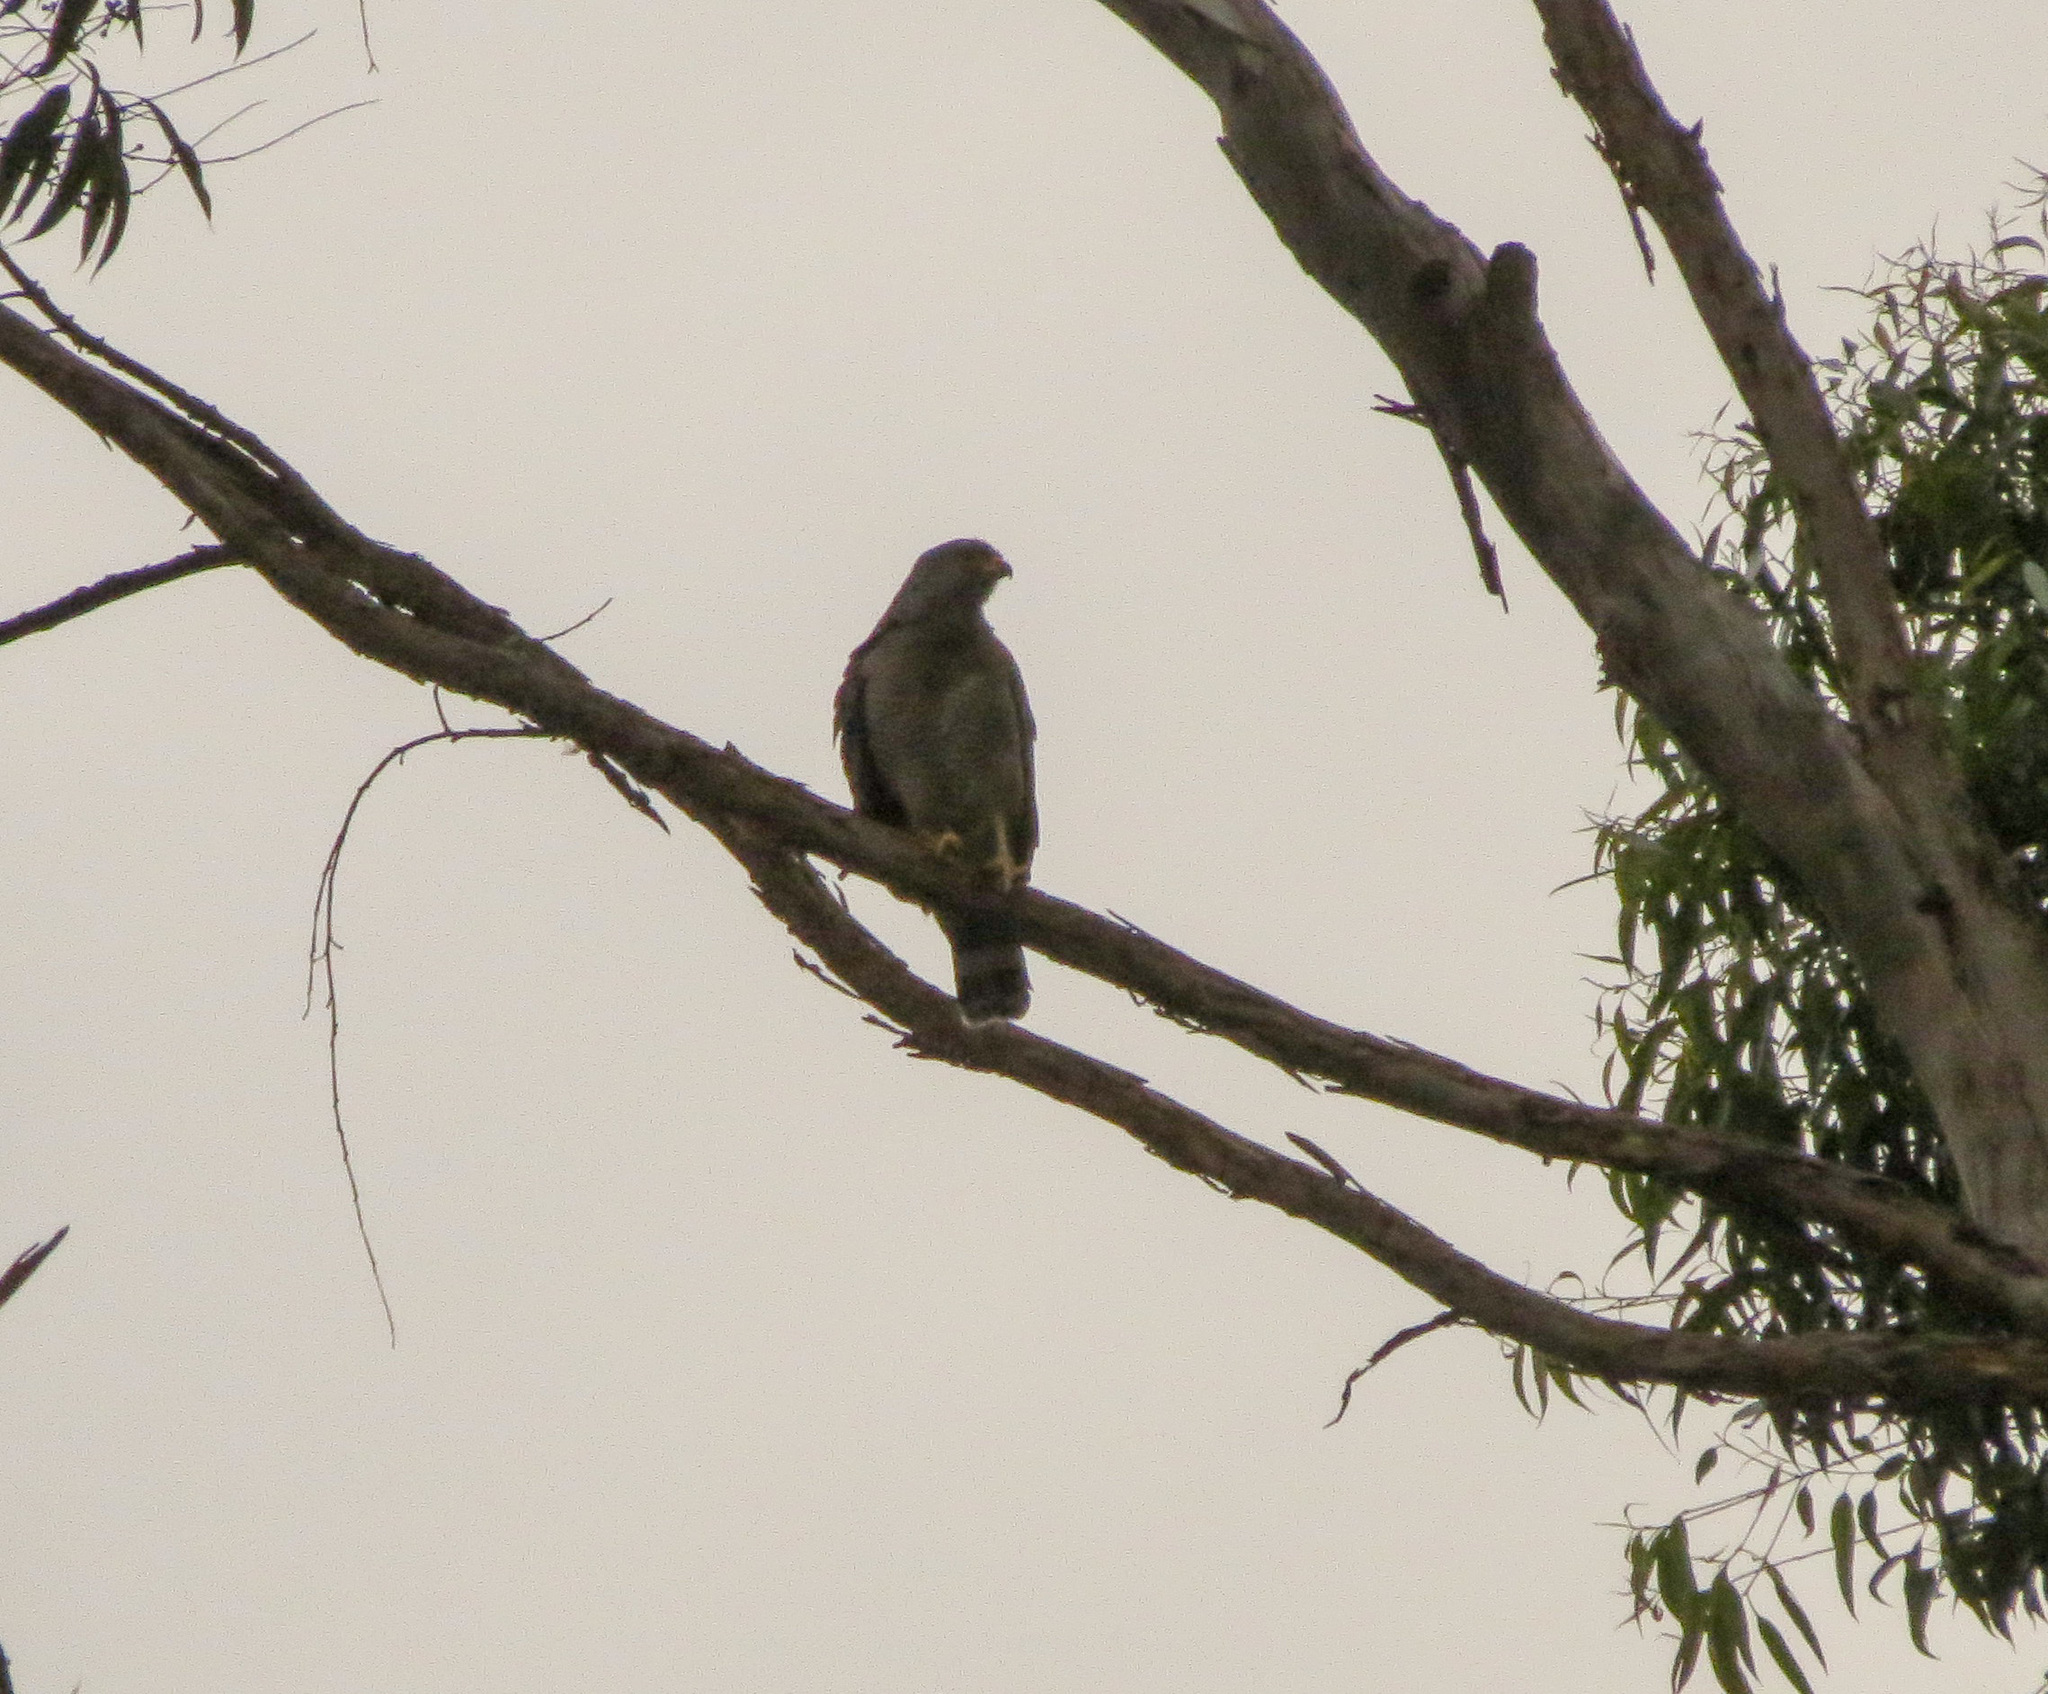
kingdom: Animalia
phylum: Chordata
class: Aves
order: Accipitriformes
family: Accipitridae
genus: Rupornis
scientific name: Rupornis magnirostris
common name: Roadside hawk
